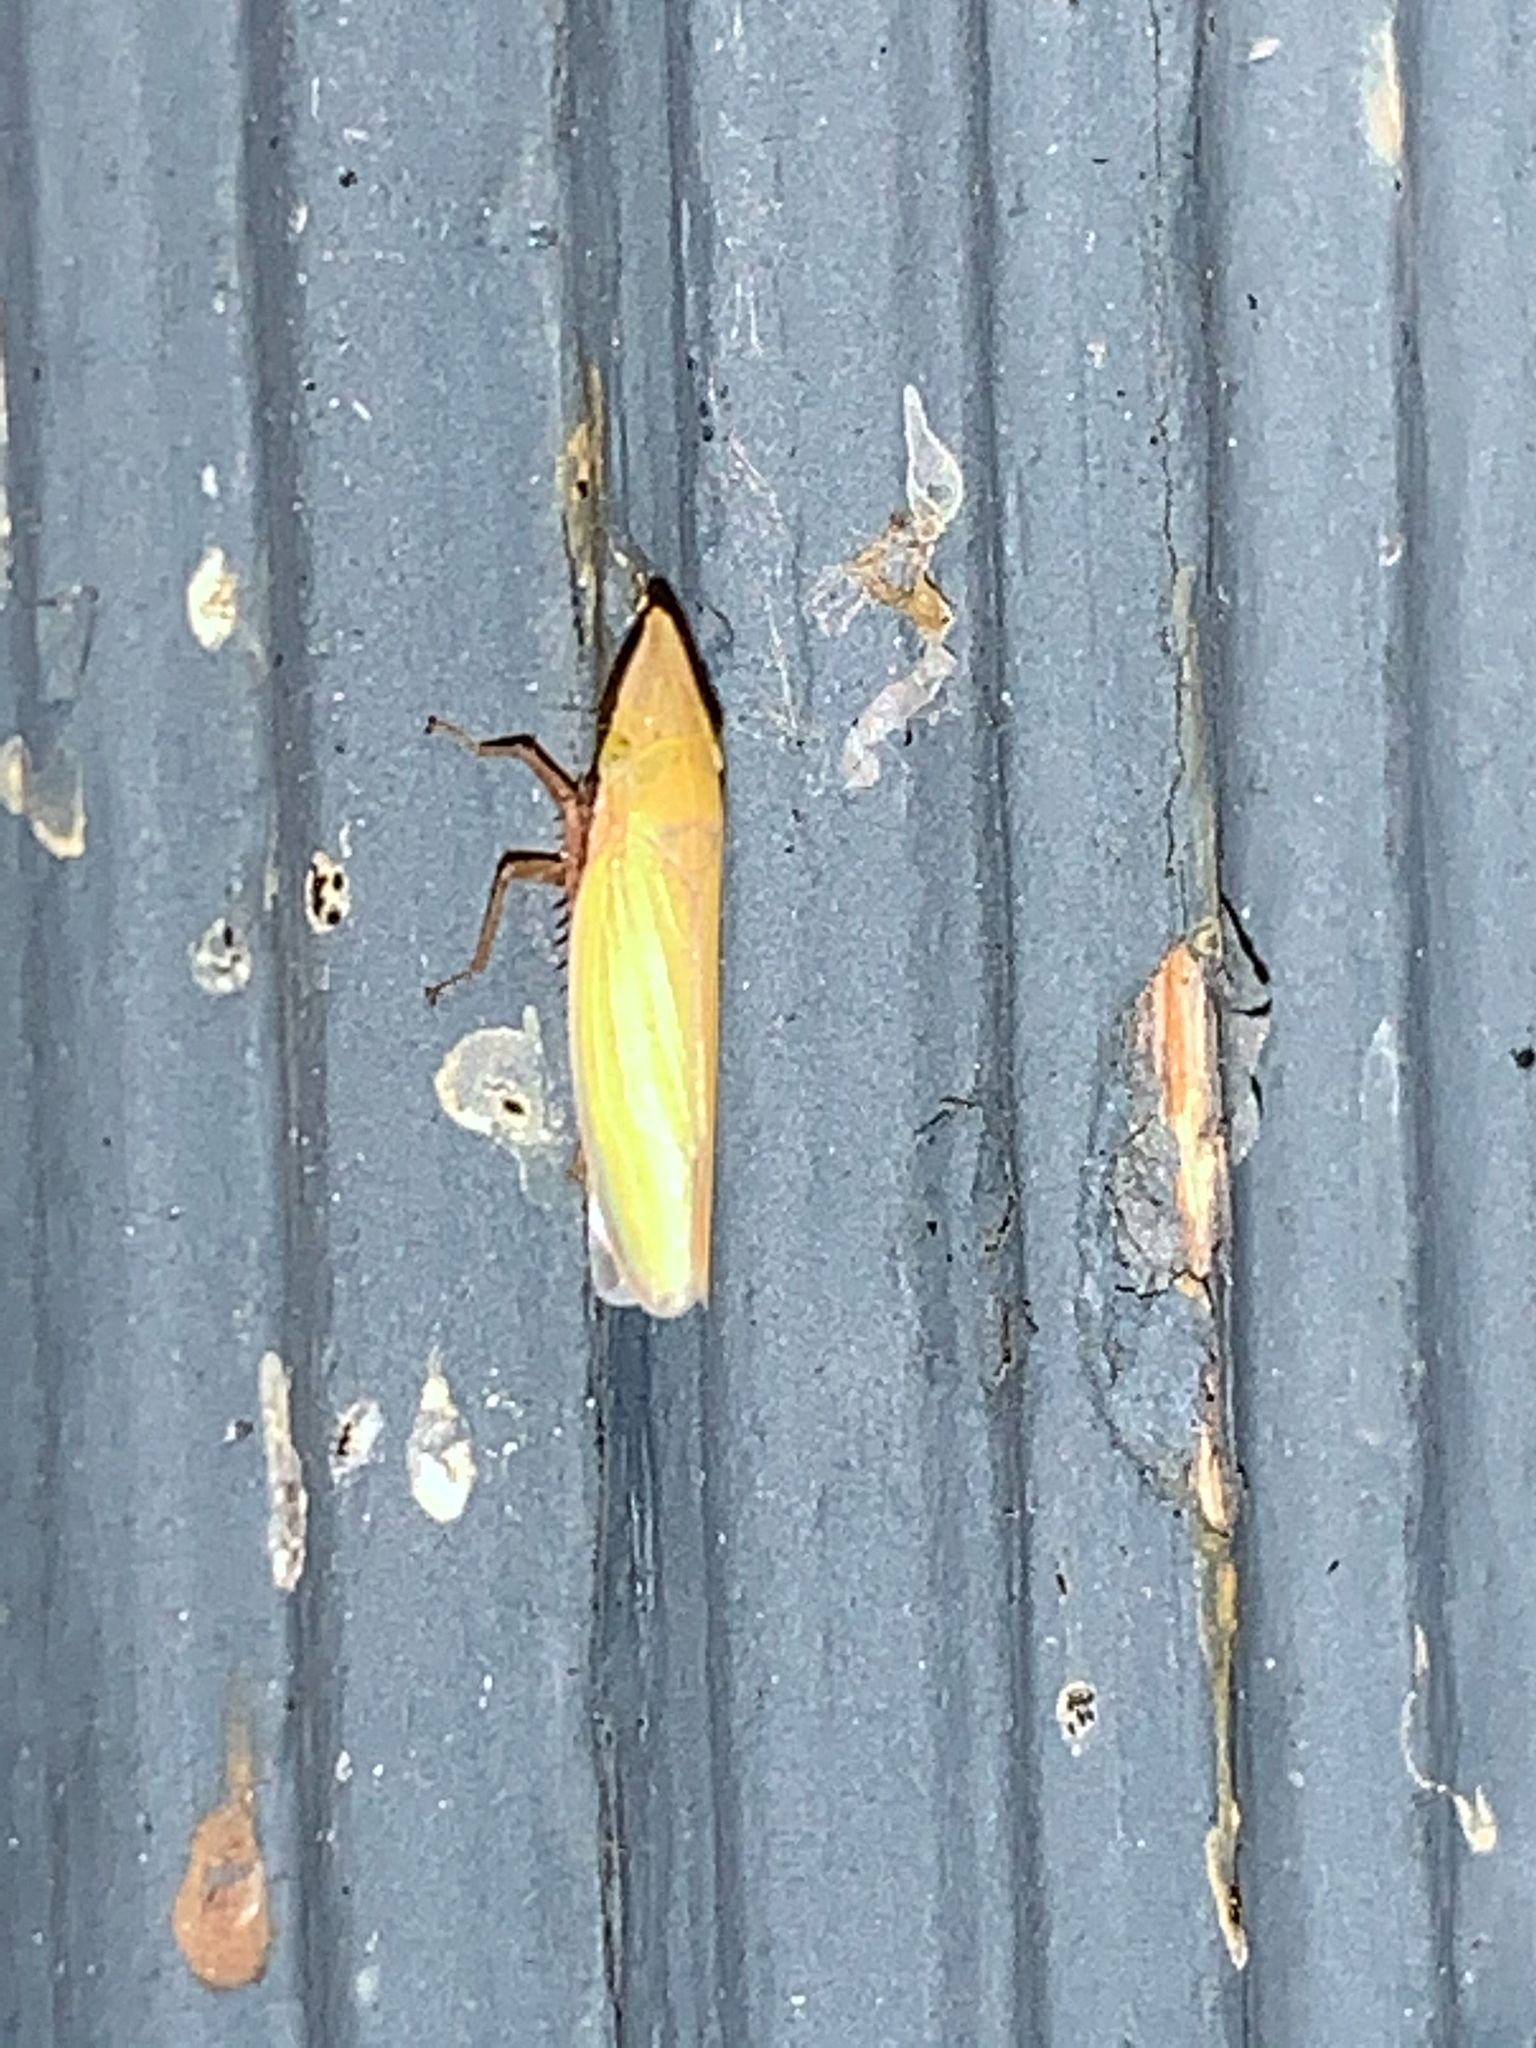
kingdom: Animalia
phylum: Arthropoda
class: Insecta
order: Hemiptera
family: Cicadellidae
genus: Draeculacephala
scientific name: Draeculacephala antica
